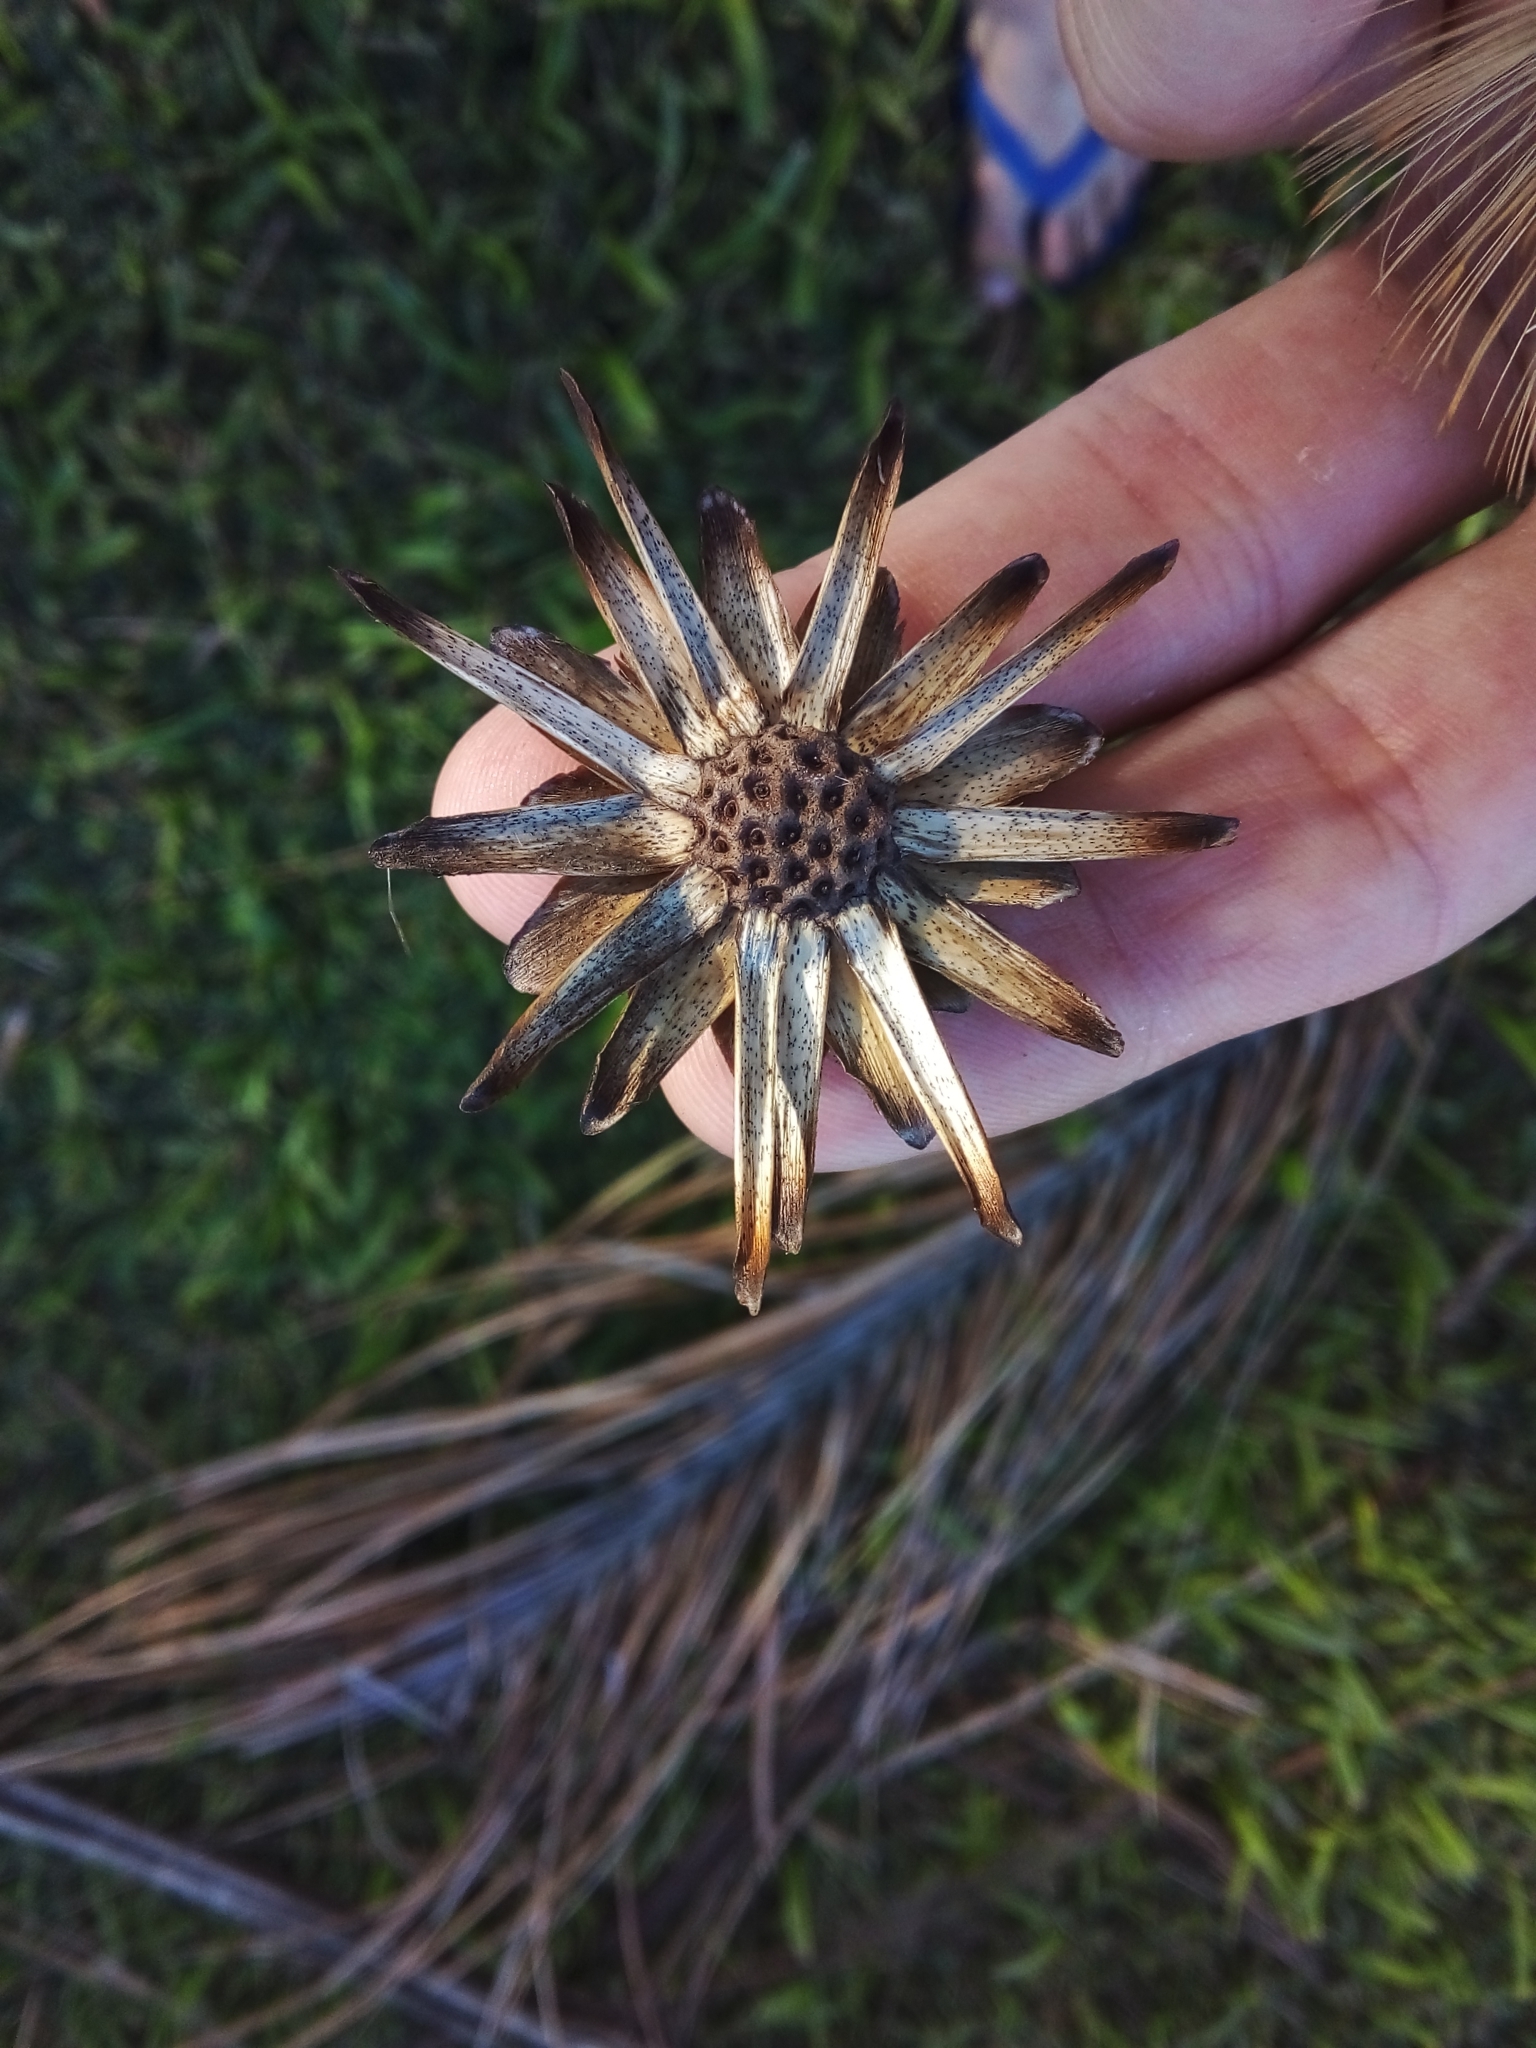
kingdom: Plantae
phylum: Tracheophyta
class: Magnoliopsida
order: Asterales
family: Asteraceae
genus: Stifftia
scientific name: Stifftia chrysantha
